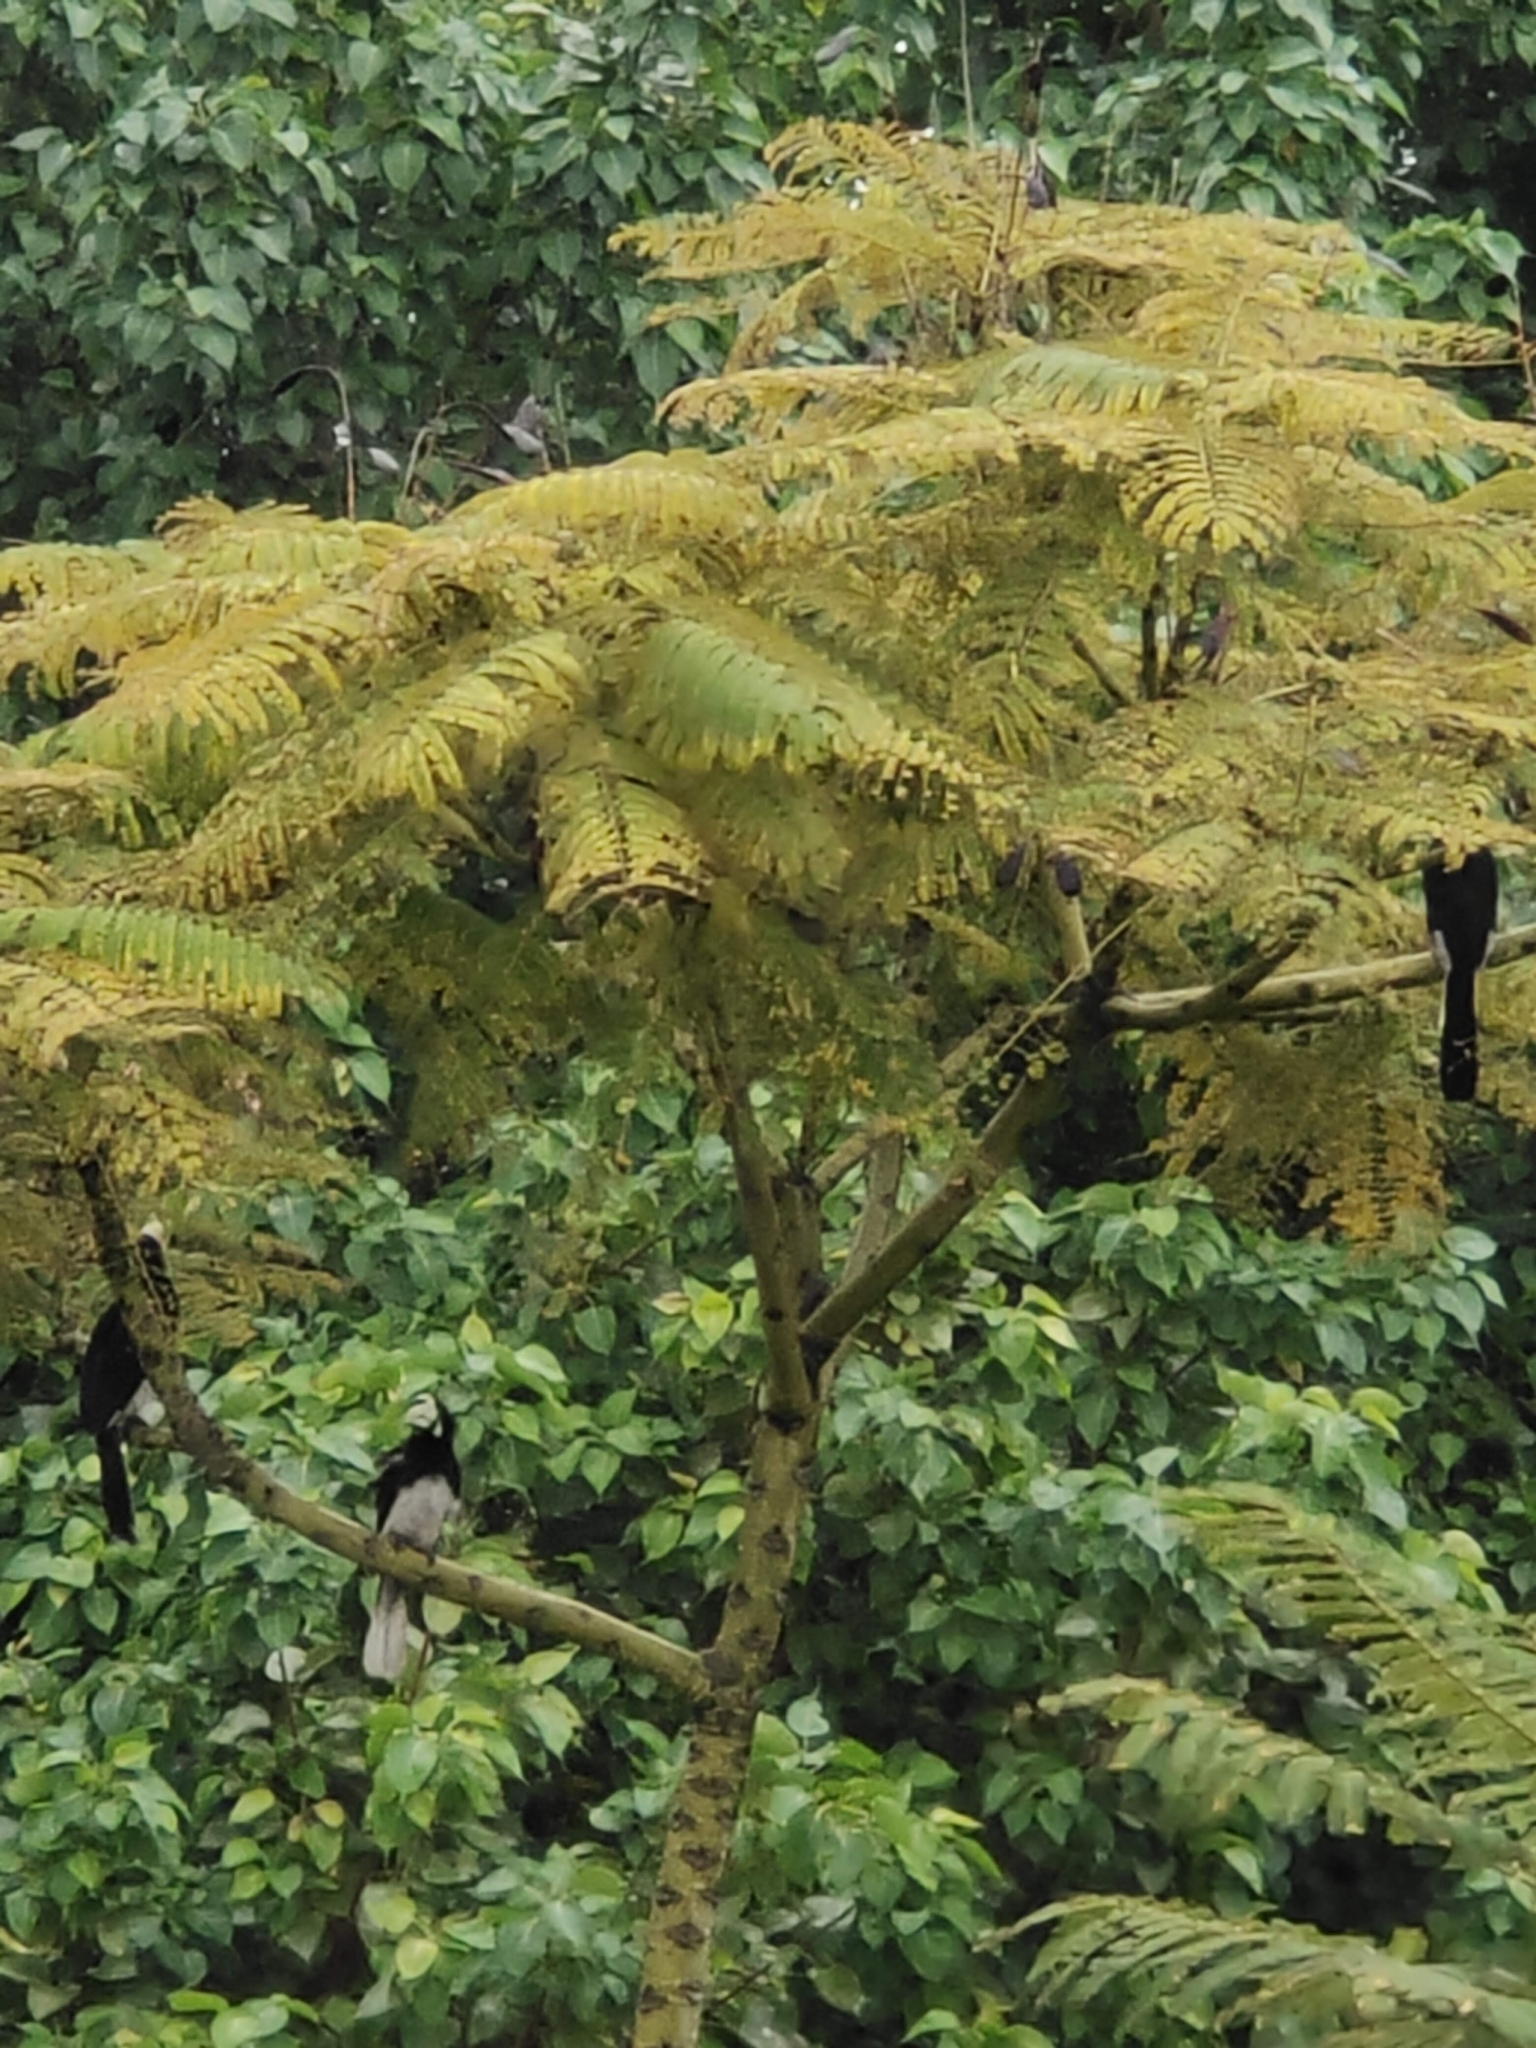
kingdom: Animalia
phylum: Chordata
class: Aves
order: Bucerotiformes
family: Bucerotidae
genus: Anthracoceros
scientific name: Anthracoceros albirostris
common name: Oriental pied-hornbill
